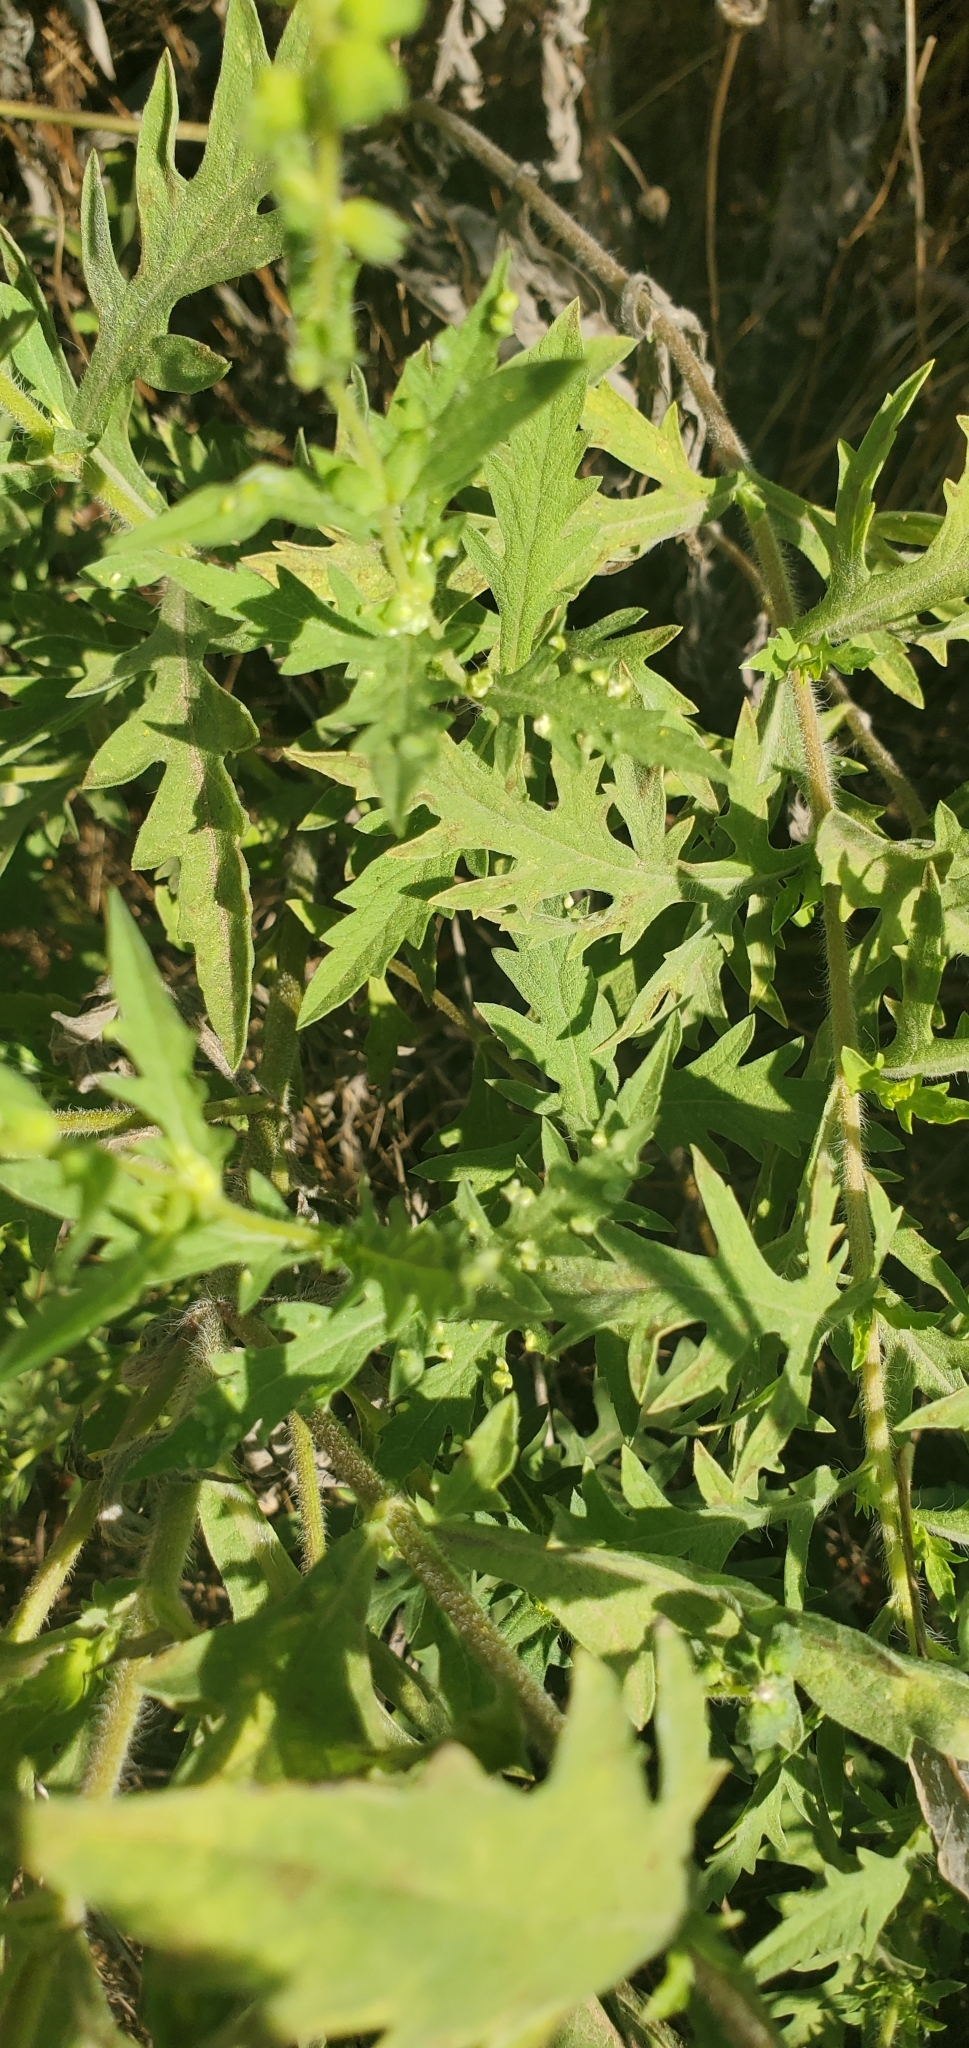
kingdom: Animalia
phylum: Arthropoda
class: Arachnida
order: Trombidiformes
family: Eriophyidae
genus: Aceria
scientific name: Aceria
